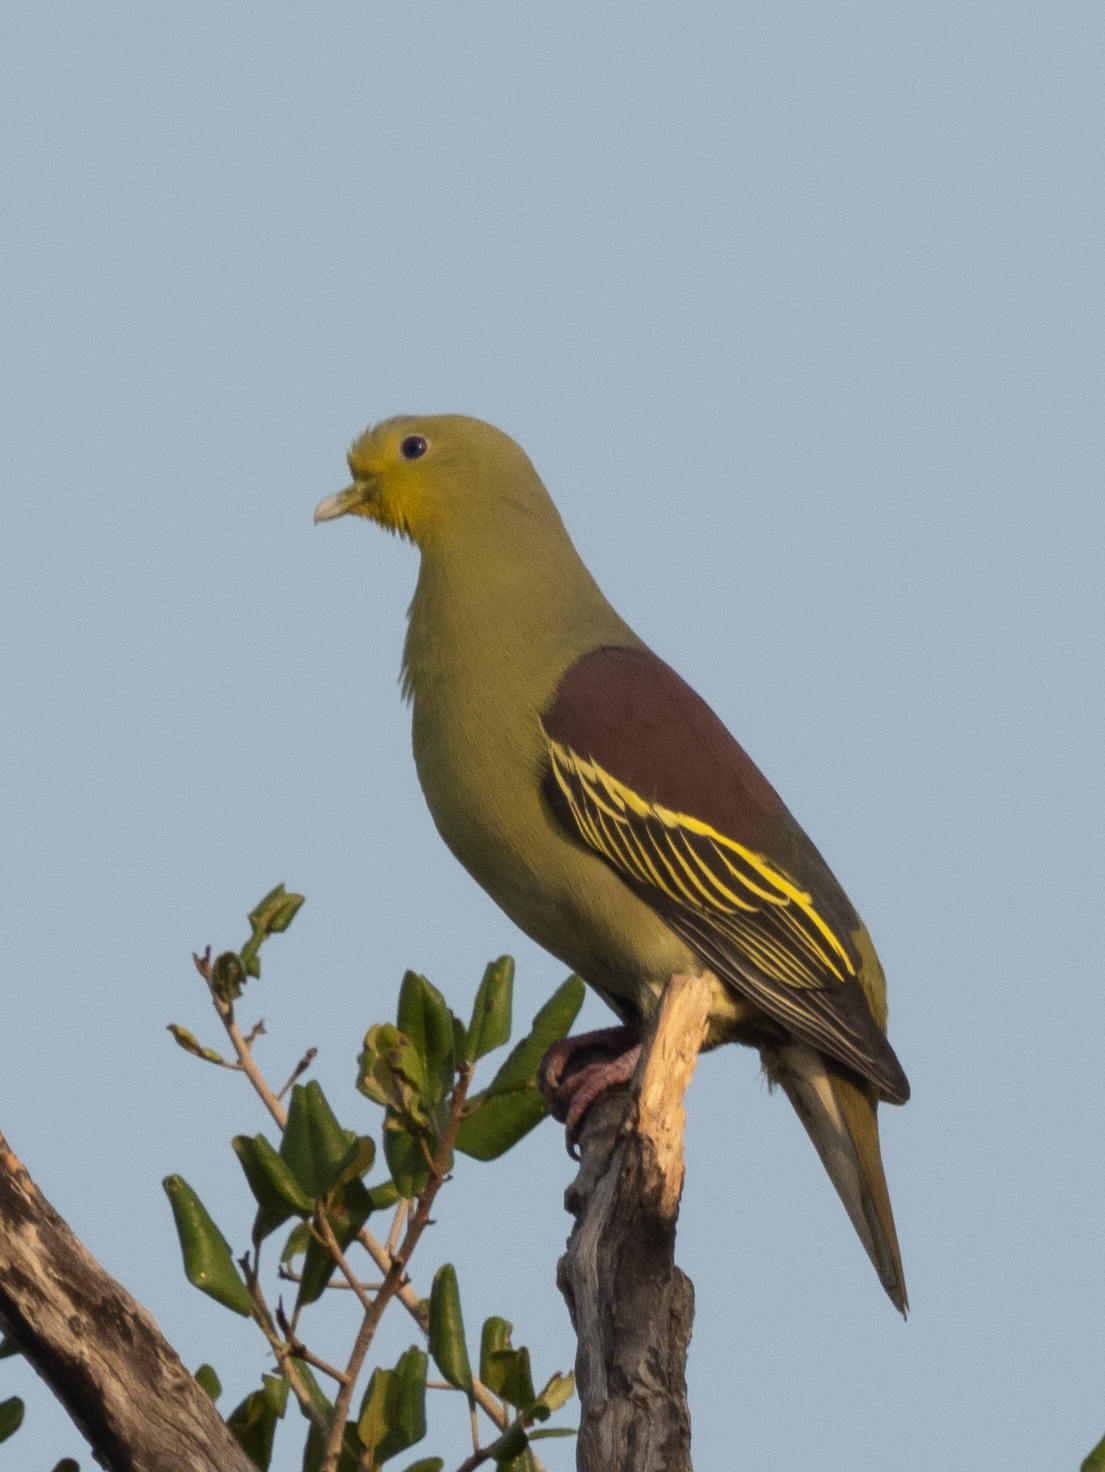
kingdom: Animalia
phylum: Chordata
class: Aves
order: Columbiformes
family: Columbidae
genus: Treron
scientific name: Treron pompadora
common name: Pompadour green pigeon
